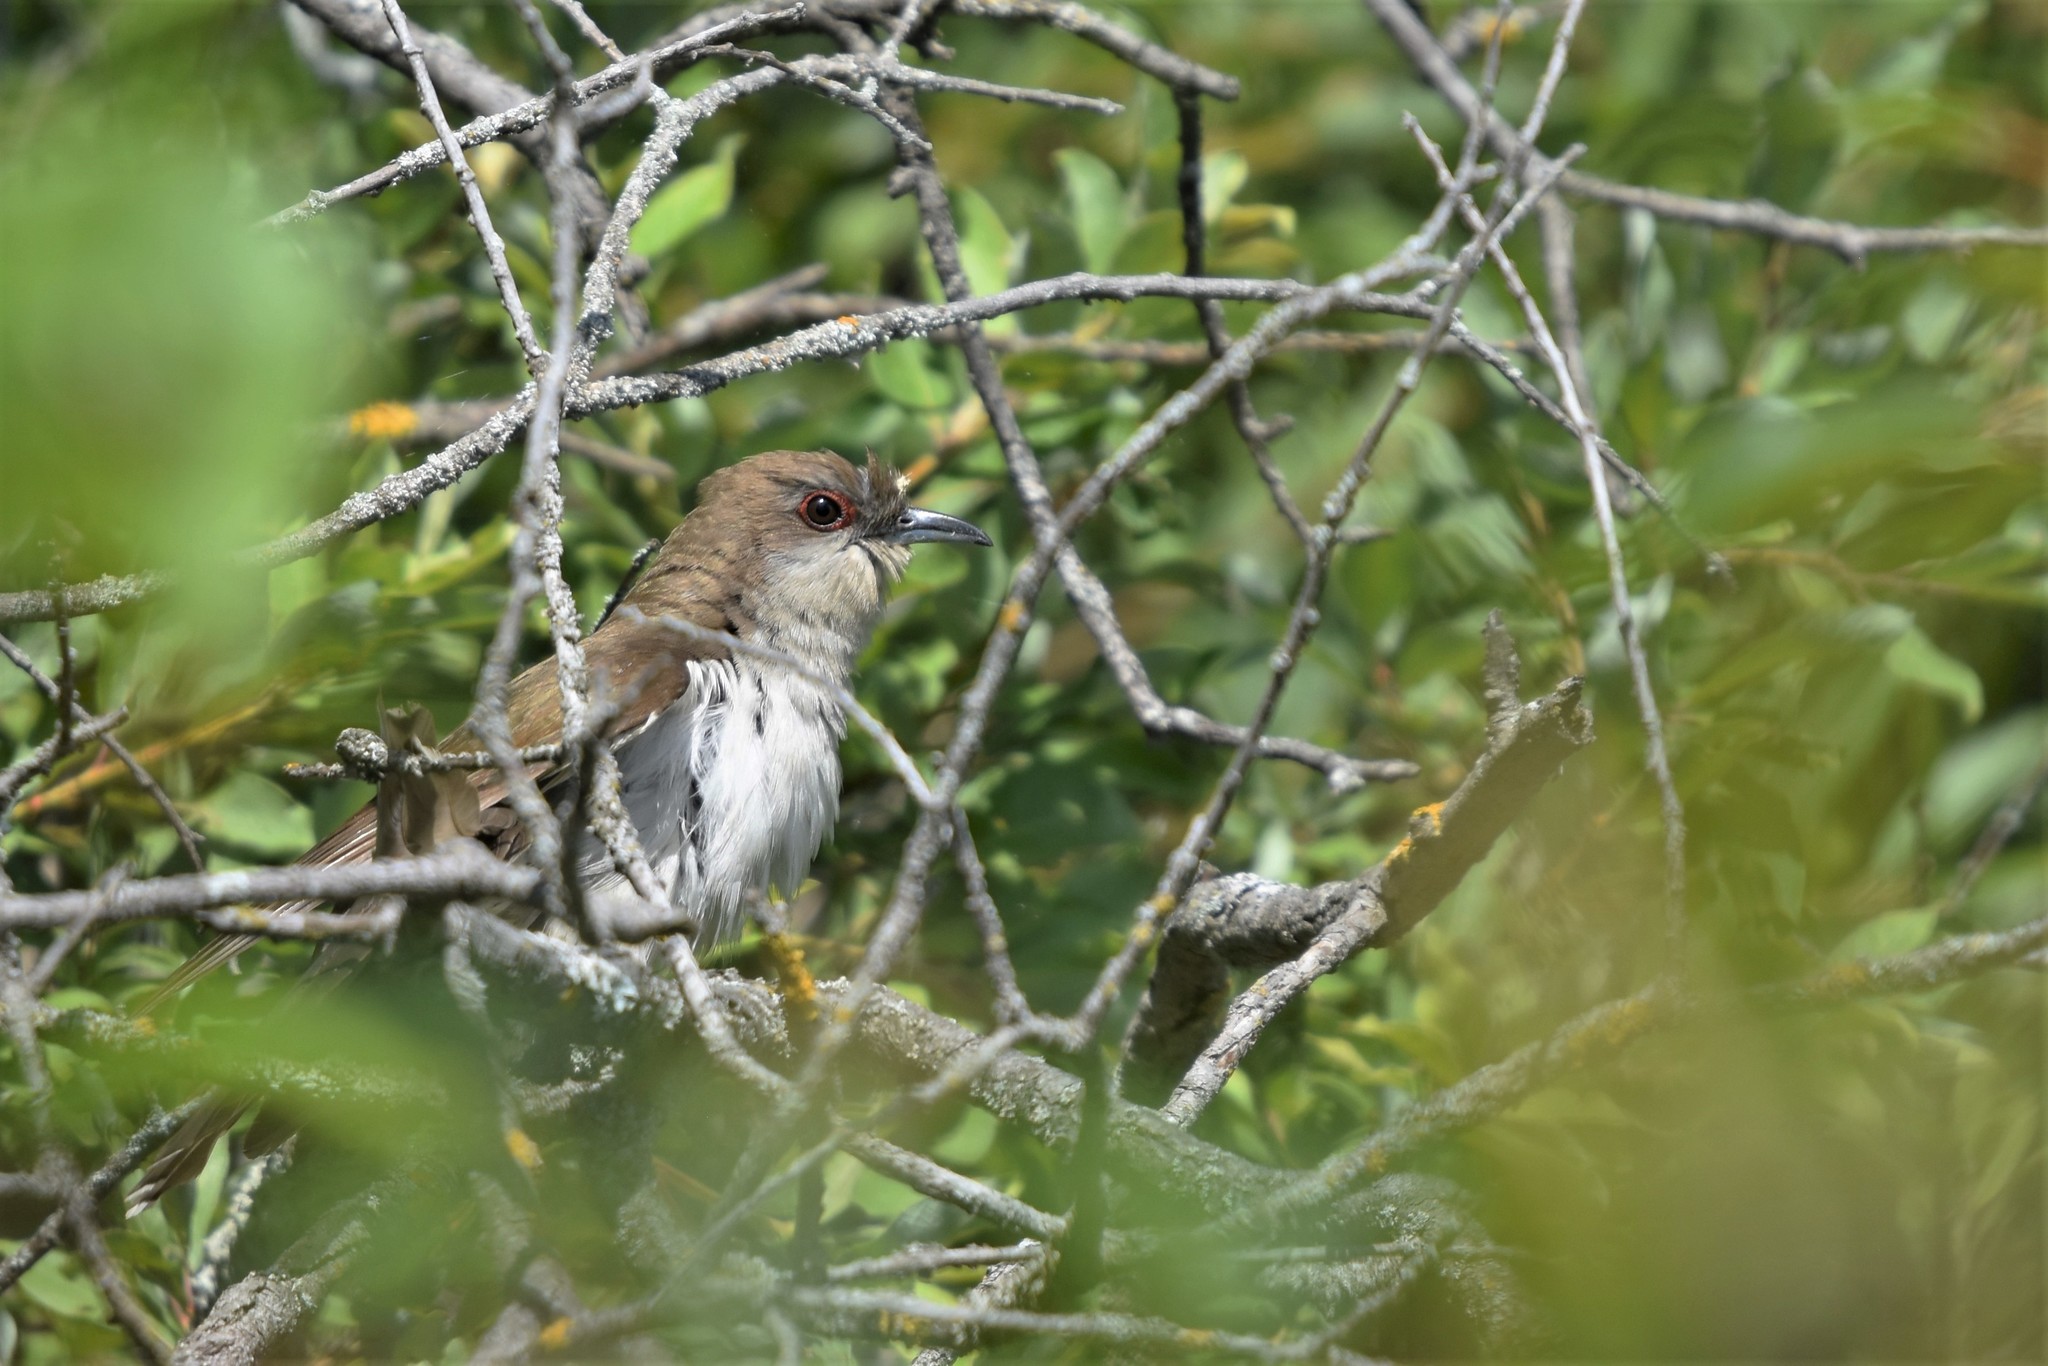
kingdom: Animalia
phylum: Chordata
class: Aves
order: Cuculiformes
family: Cuculidae
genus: Coccyzus
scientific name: Coccyzus erythropthalmus
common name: Black-billed cuckoo
